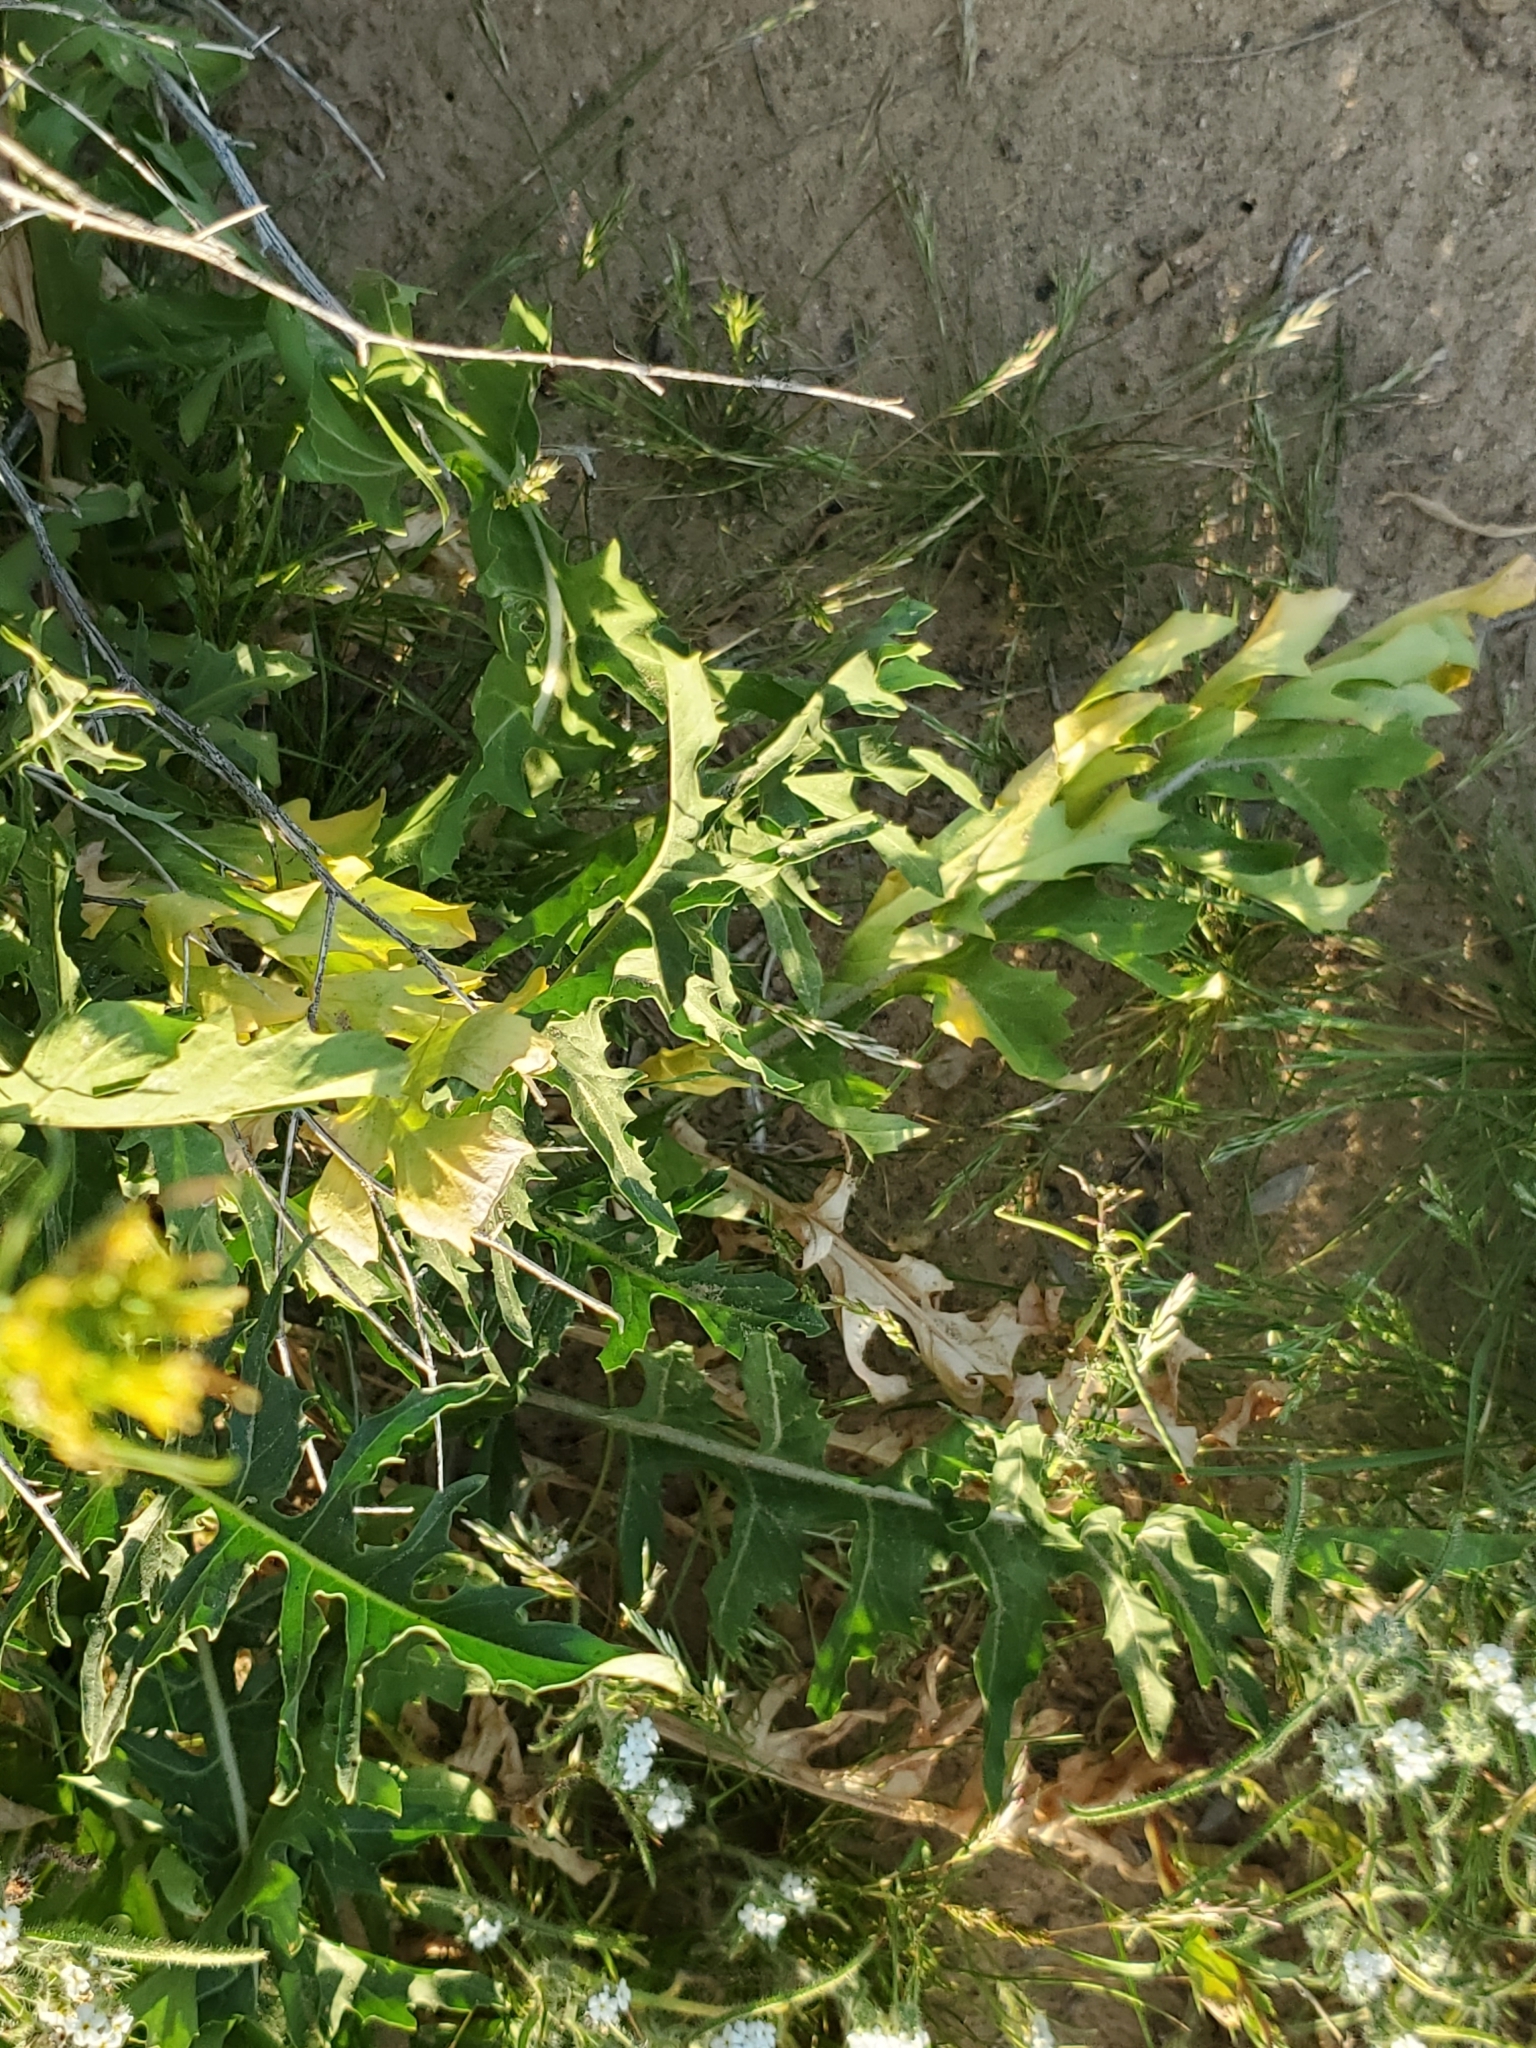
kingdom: Plantae
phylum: Tracheophyta
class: Magnoliopsida
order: Brassicales
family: Brassicaceae
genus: Sisymbrium
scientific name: Sisymbrium irio
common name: London rocket
